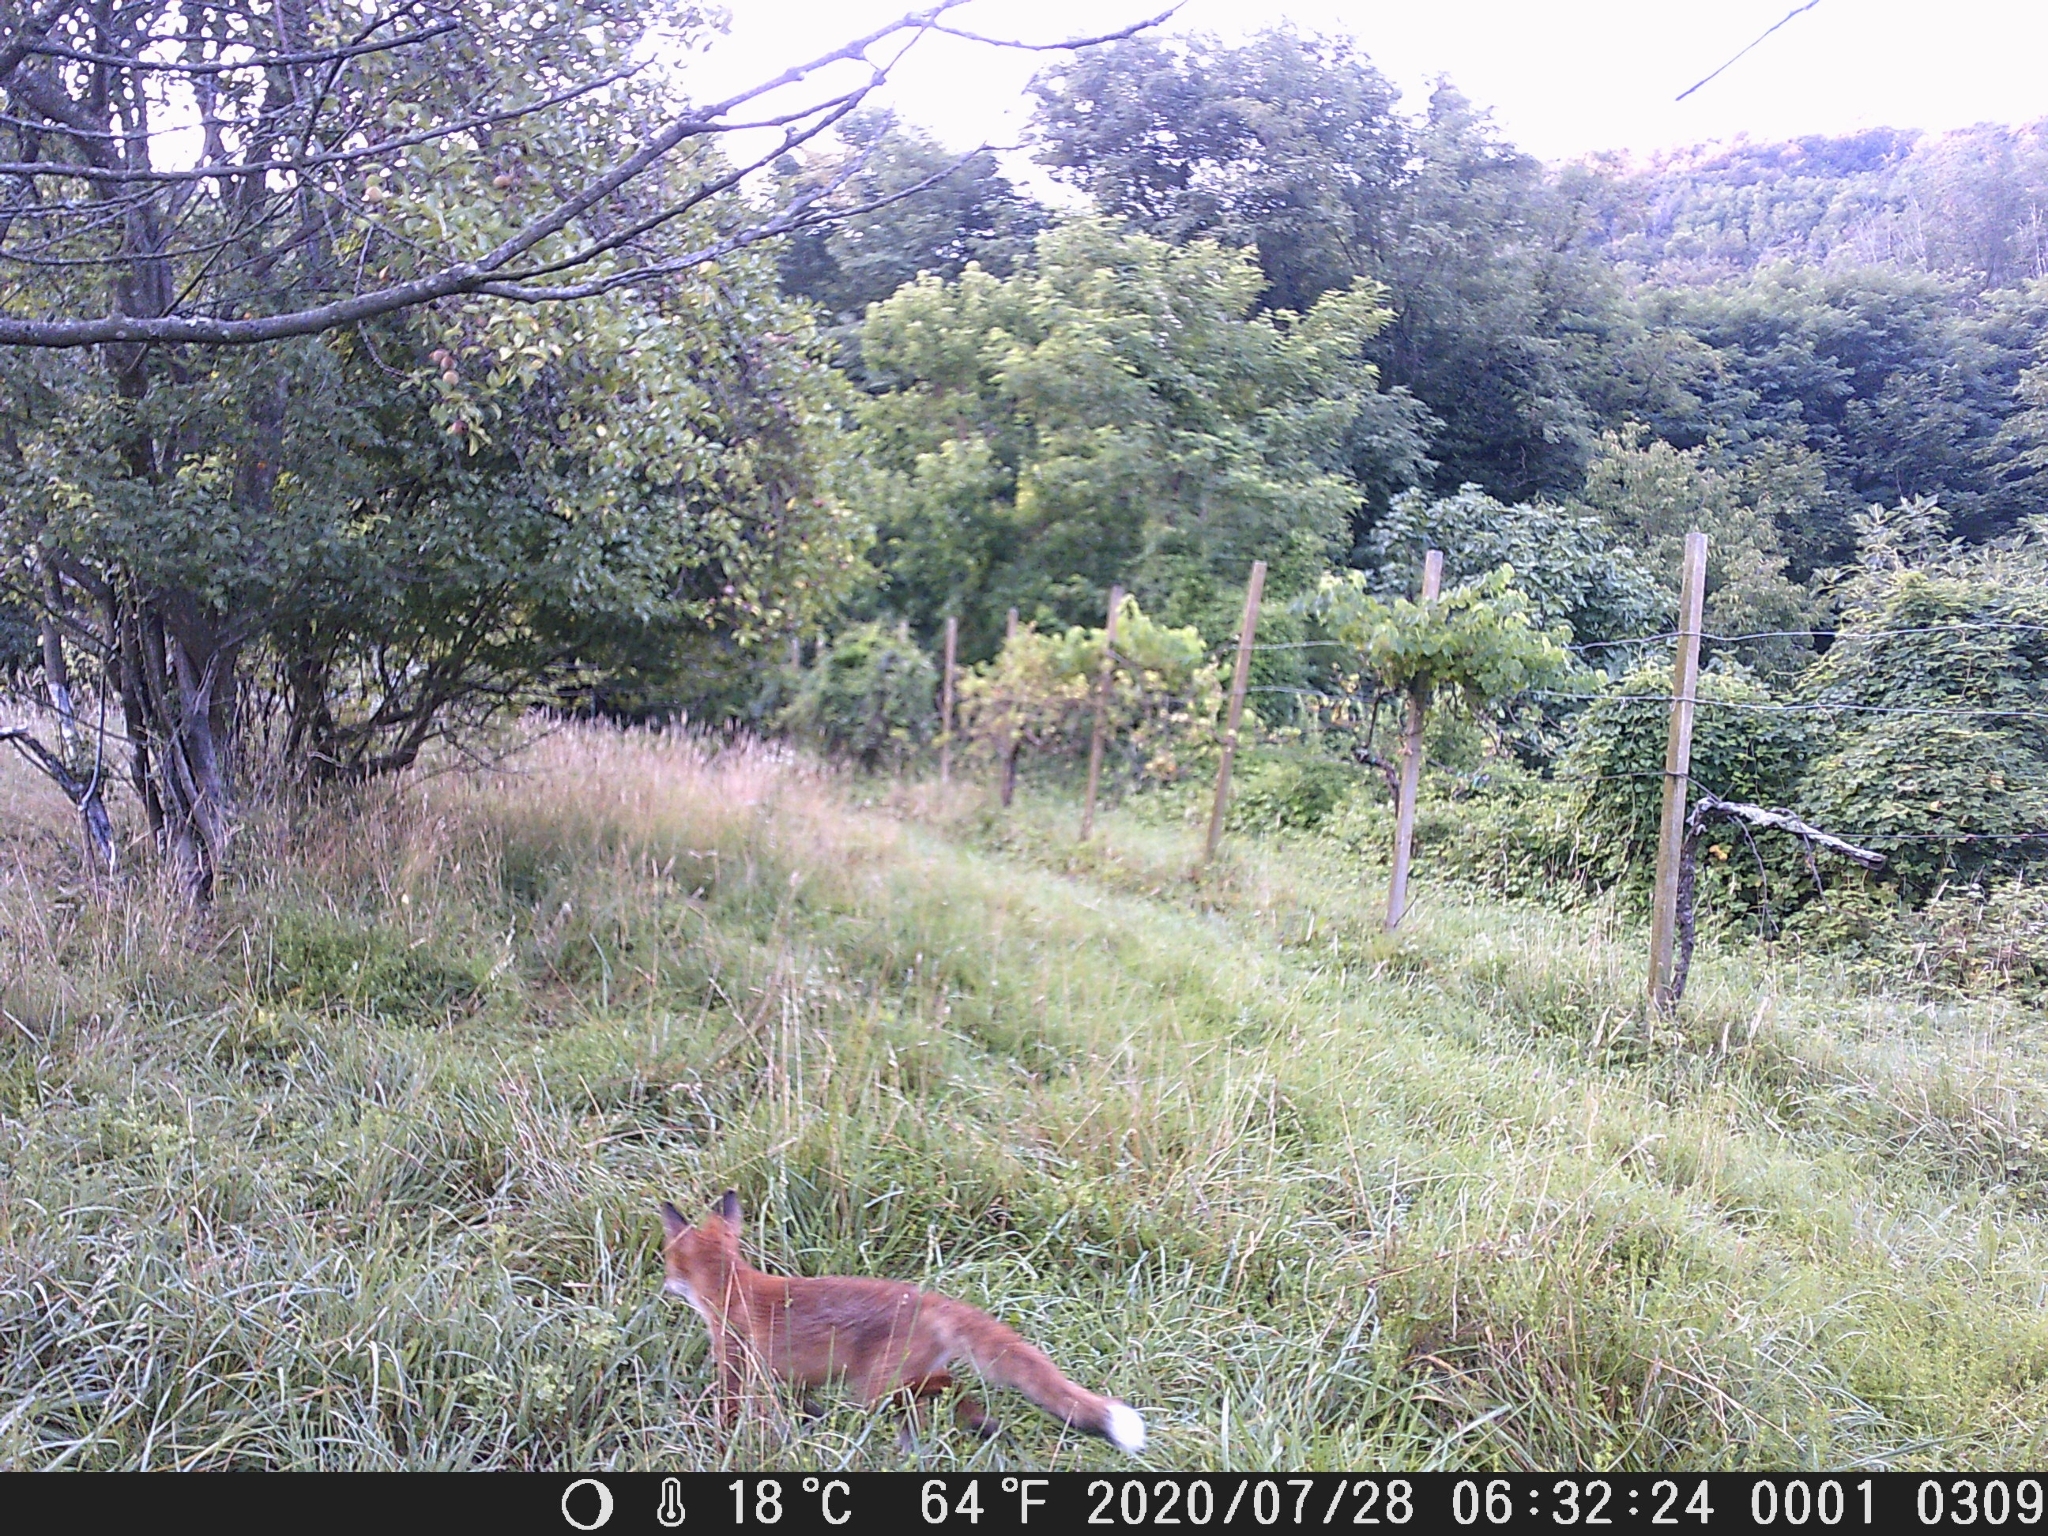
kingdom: Animalia
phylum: Chordata
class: Mammalia
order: Carnivora
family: Canidae
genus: Vulpes
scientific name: Vulpes vulpes
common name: Red fox
